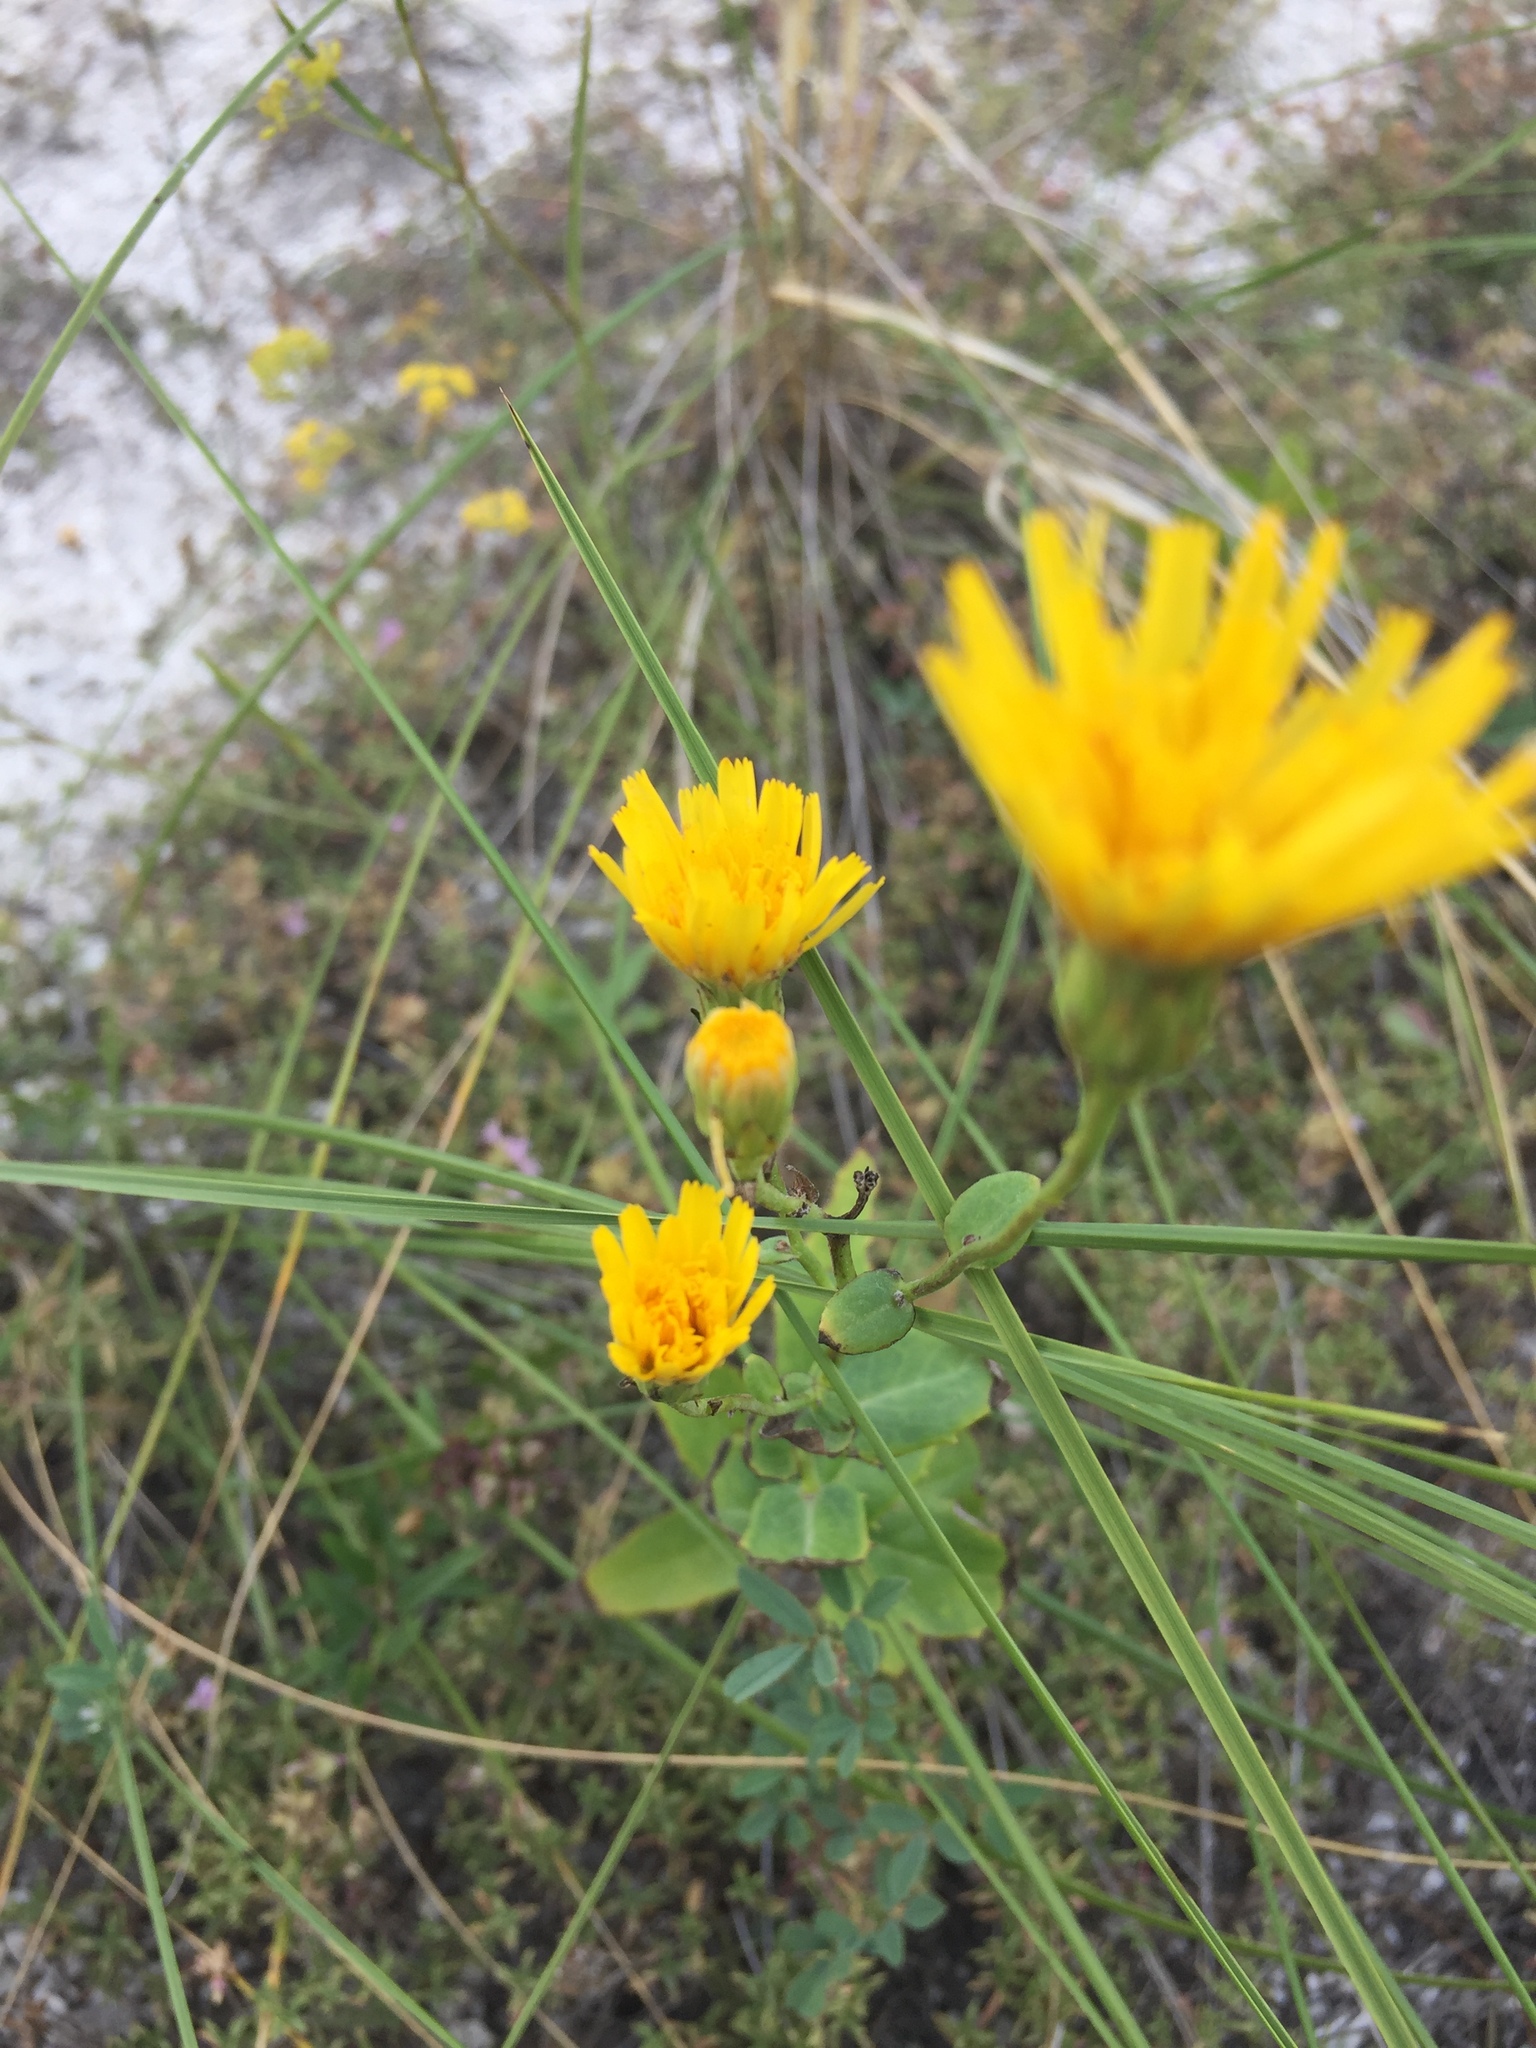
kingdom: Plantae
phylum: Tracheophyta
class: Magnoliopsida
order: Asterales
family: Asteraceae
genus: Hieracium
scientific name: Hieracium virosum
